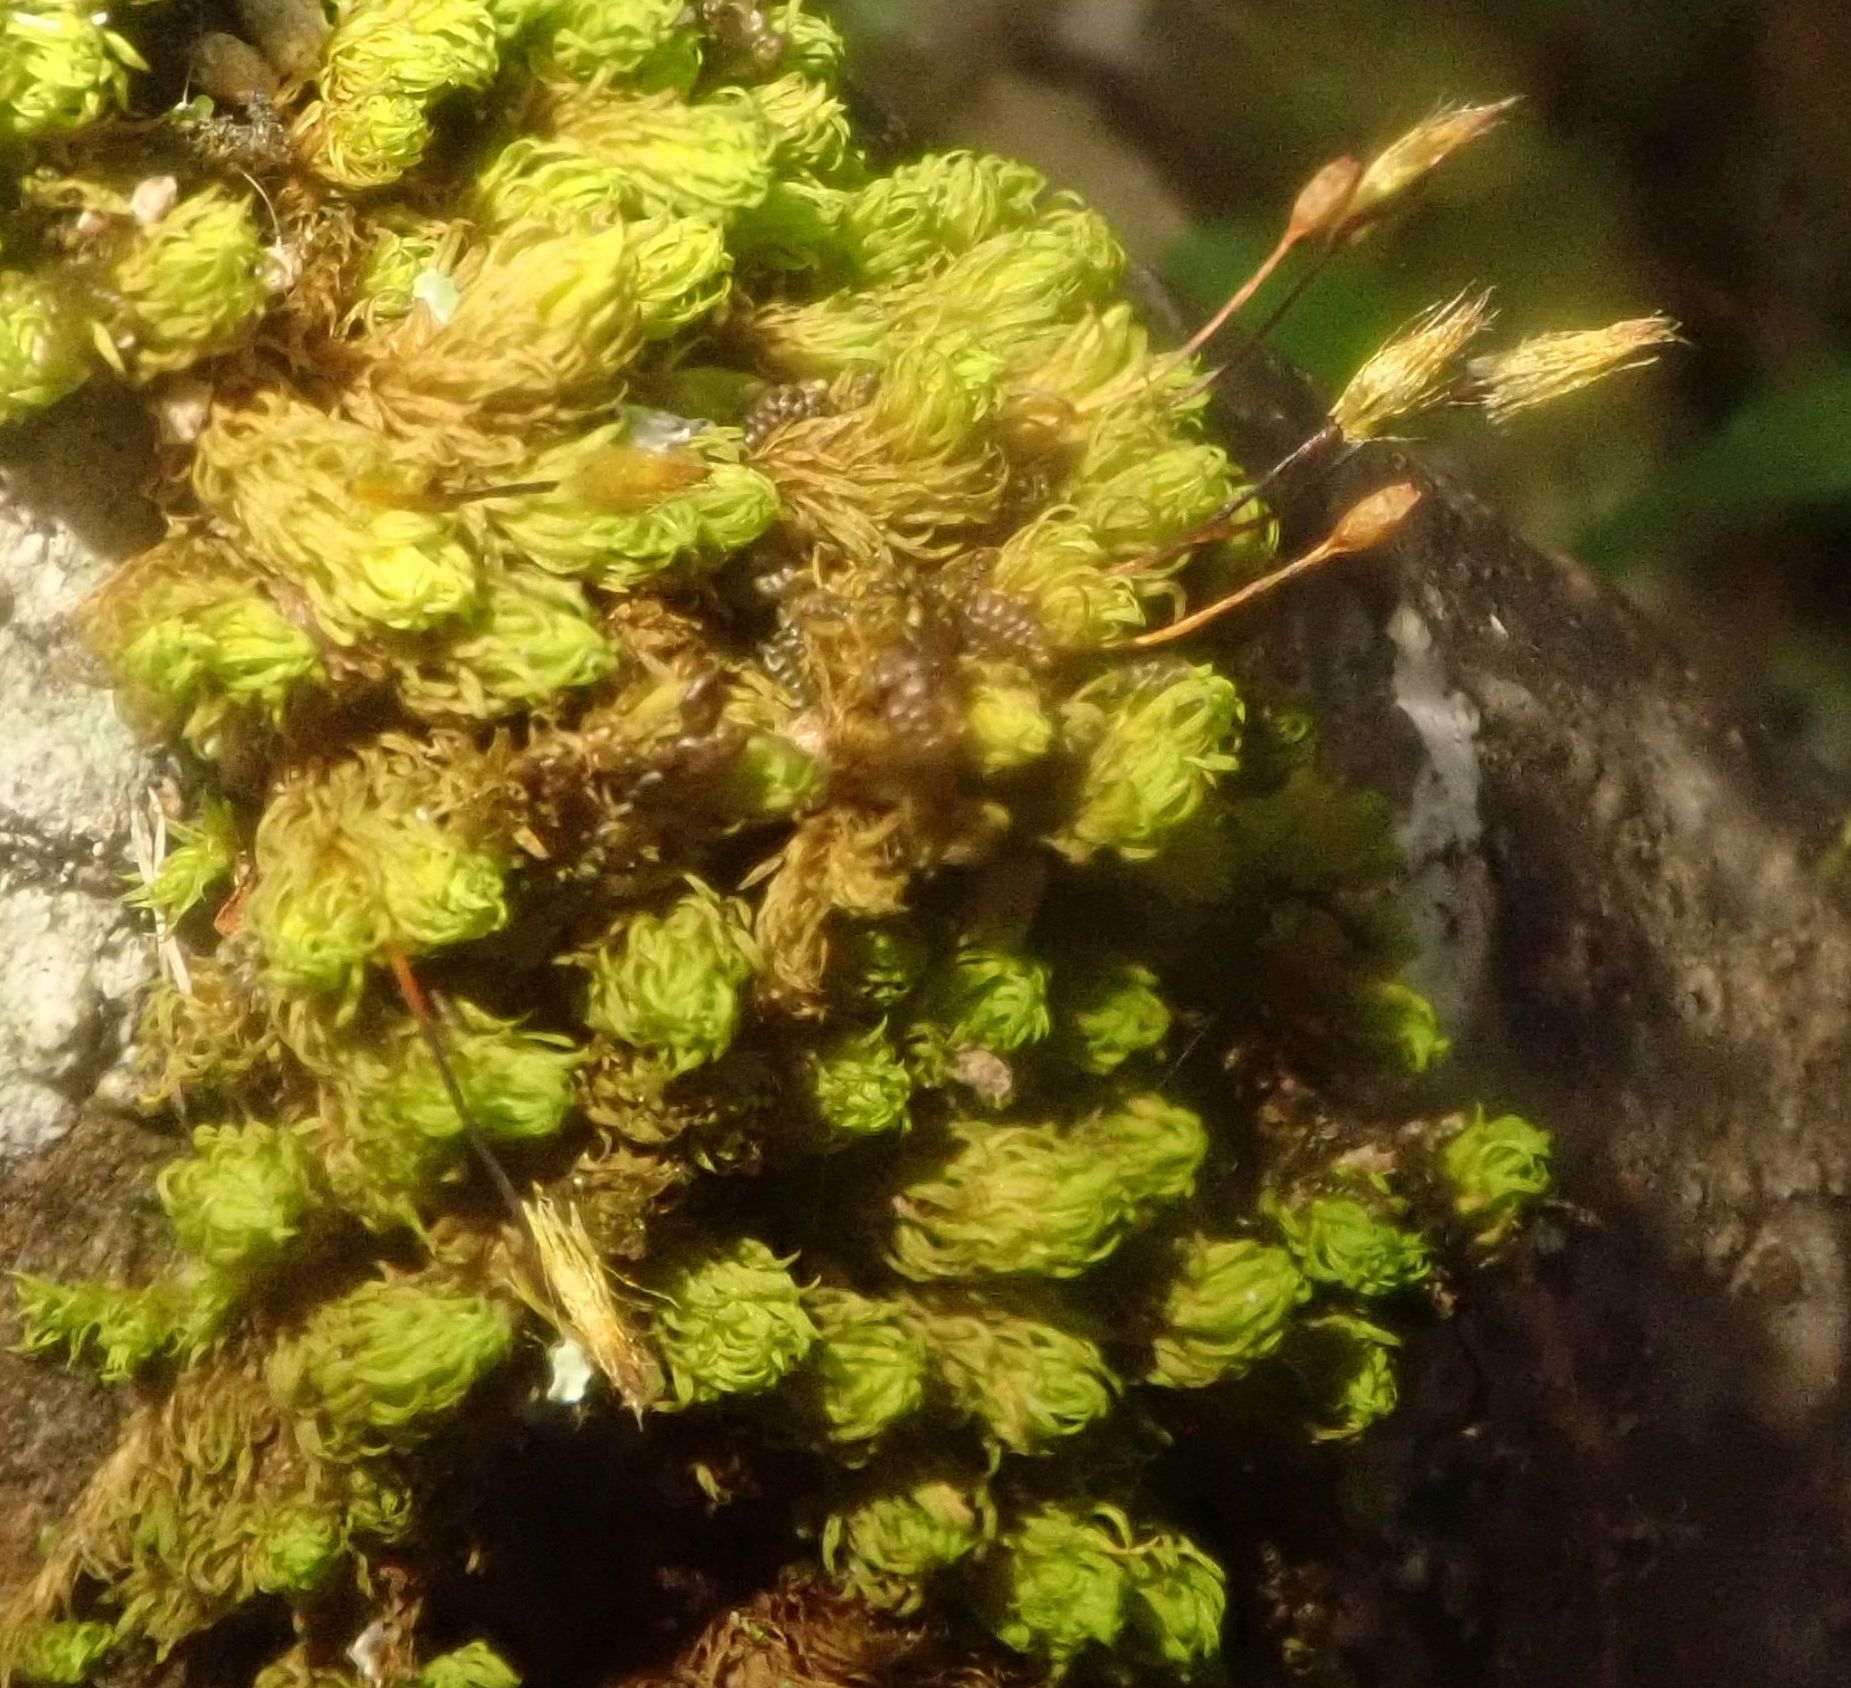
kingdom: Plantae
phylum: Bryophyta
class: Bryopsida
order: Orthotrichales
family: Orthotrichaceae
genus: Macromitrium
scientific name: Macromitrium grossirete
